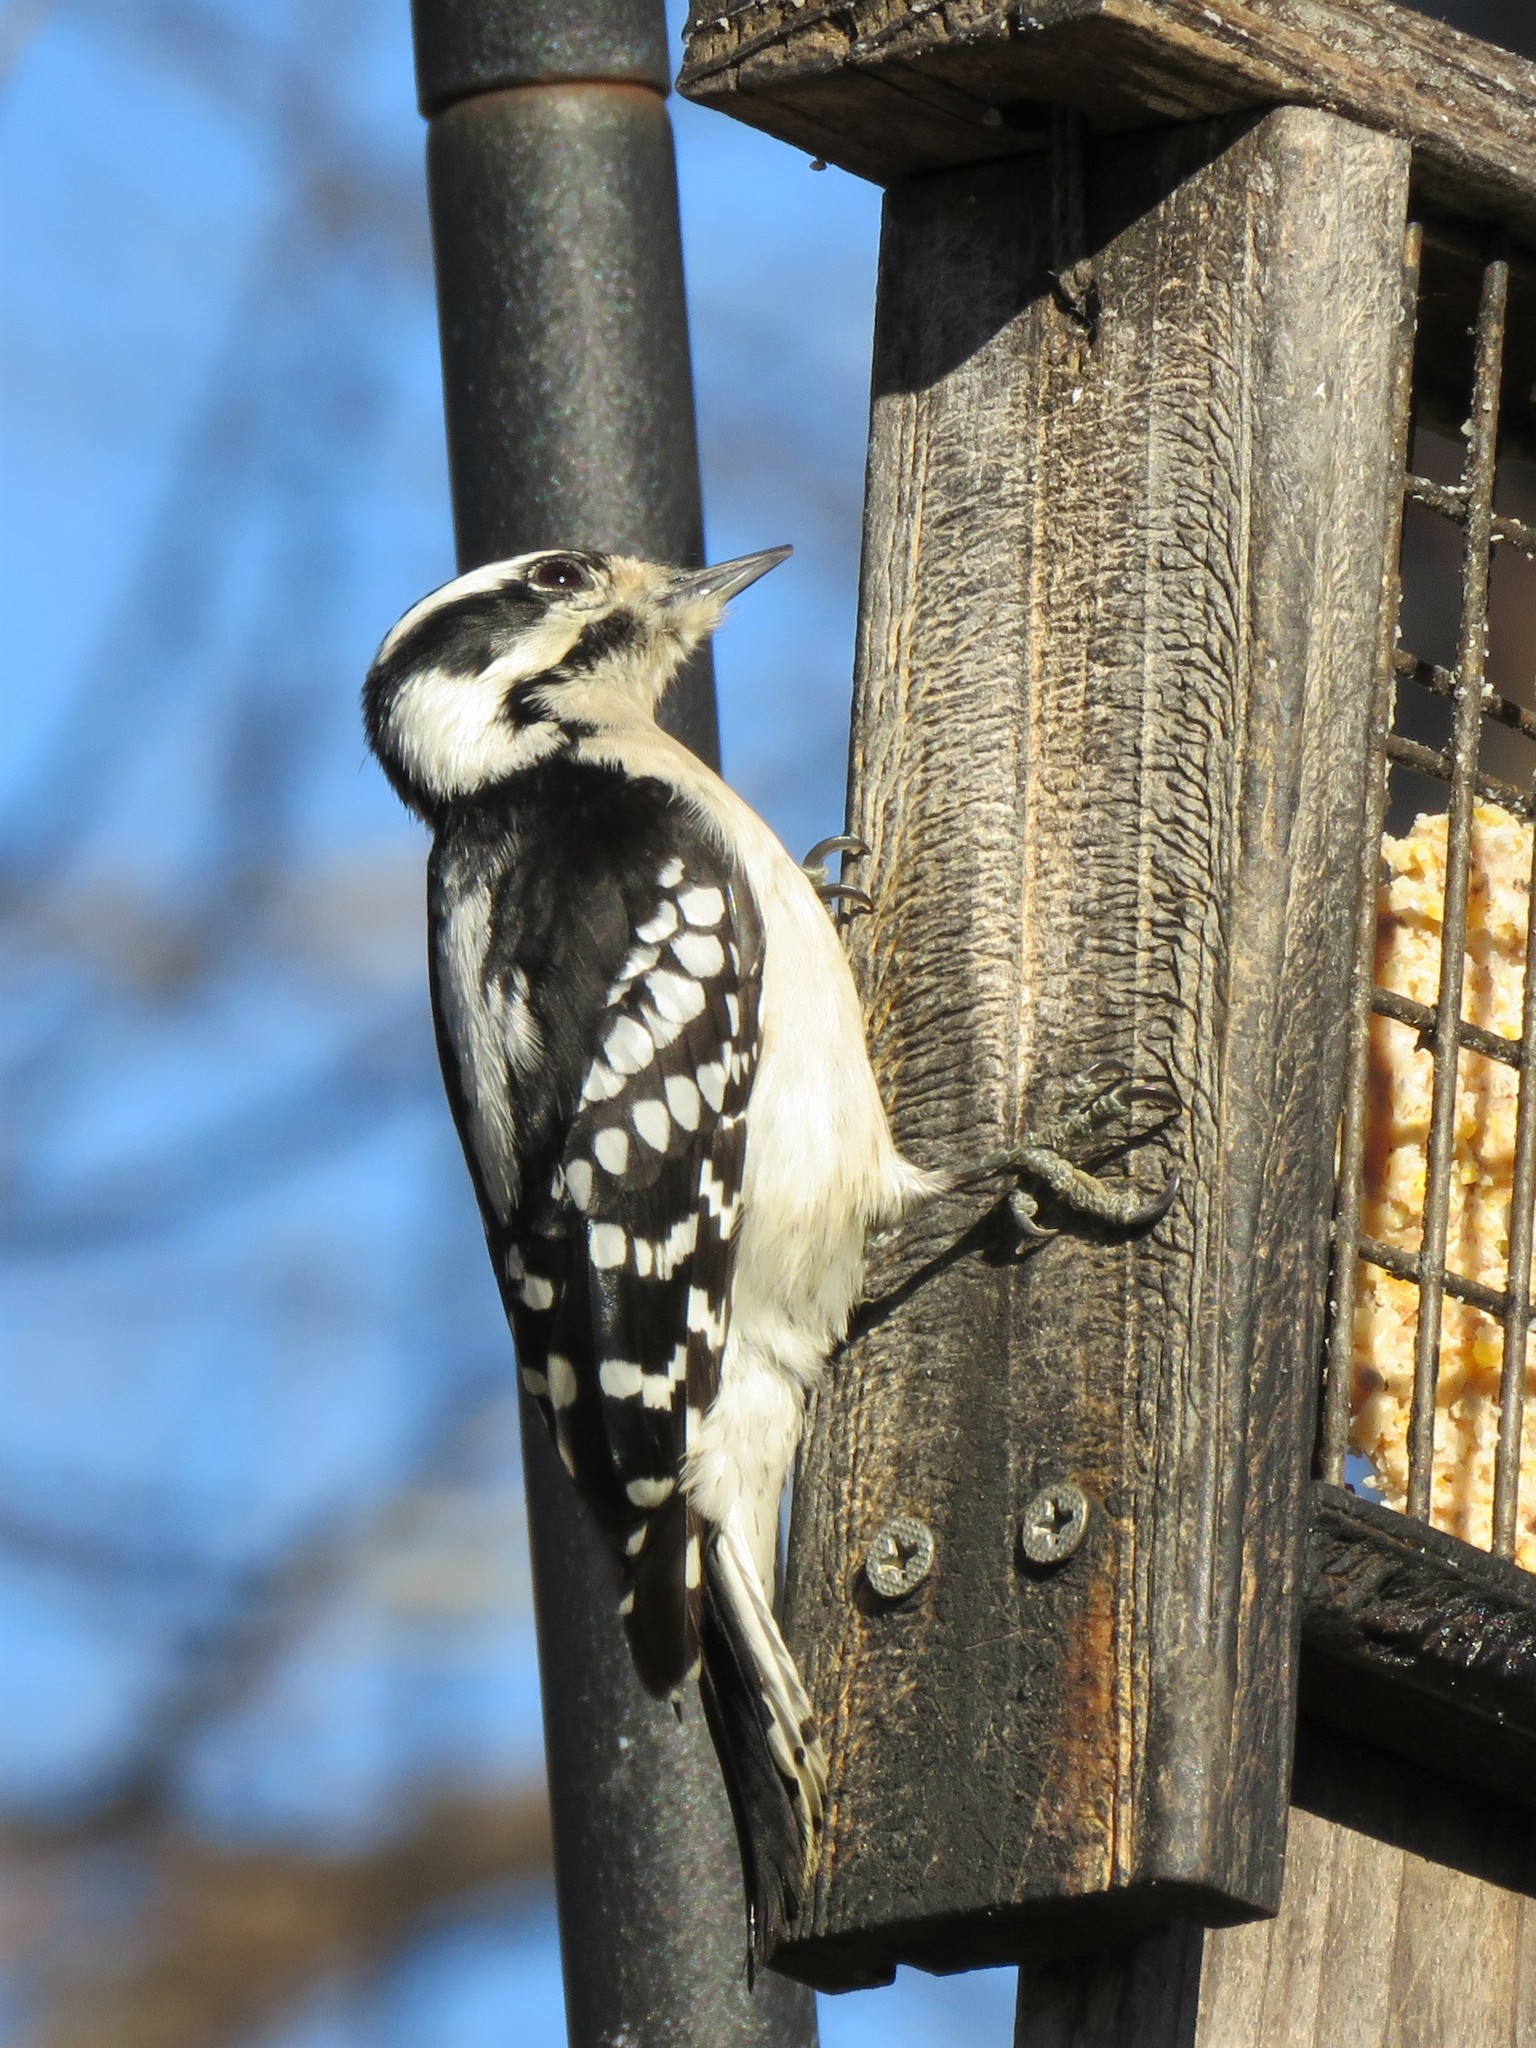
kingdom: Animalia
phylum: Chordata
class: Aves
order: Piciformes
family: Picidae
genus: Dryobates
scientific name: Dryobates pubescens
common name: Downy woodpecker
